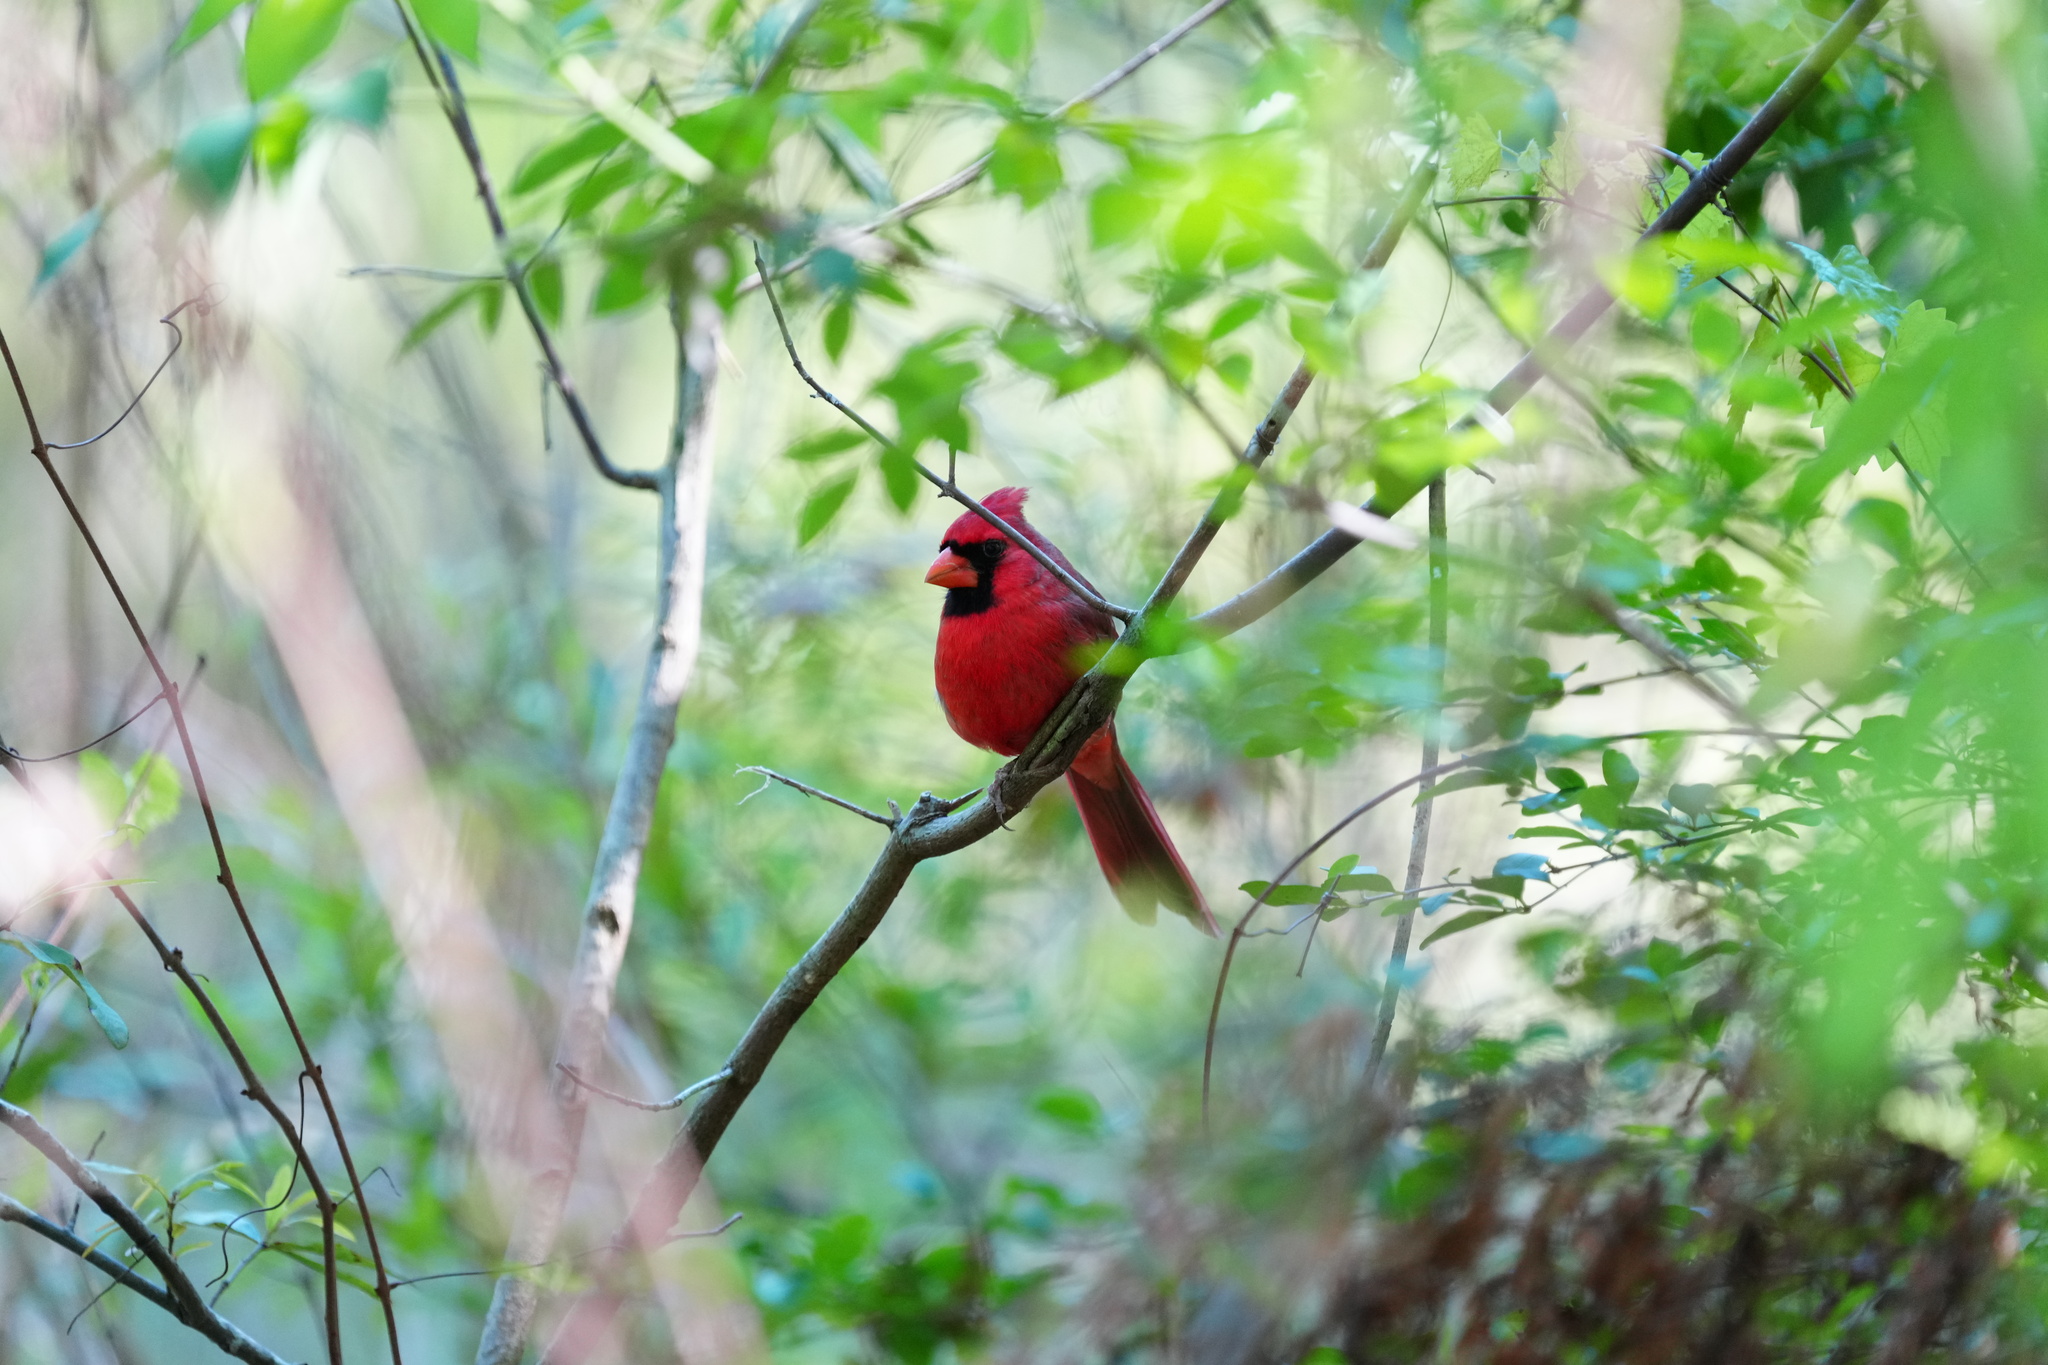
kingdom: Animalia
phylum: Chordata
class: Aves
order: Passeriformes
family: Cardinalidae
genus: Cardinalis
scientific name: Cardinalis cardinalis
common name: Northern cardinal
